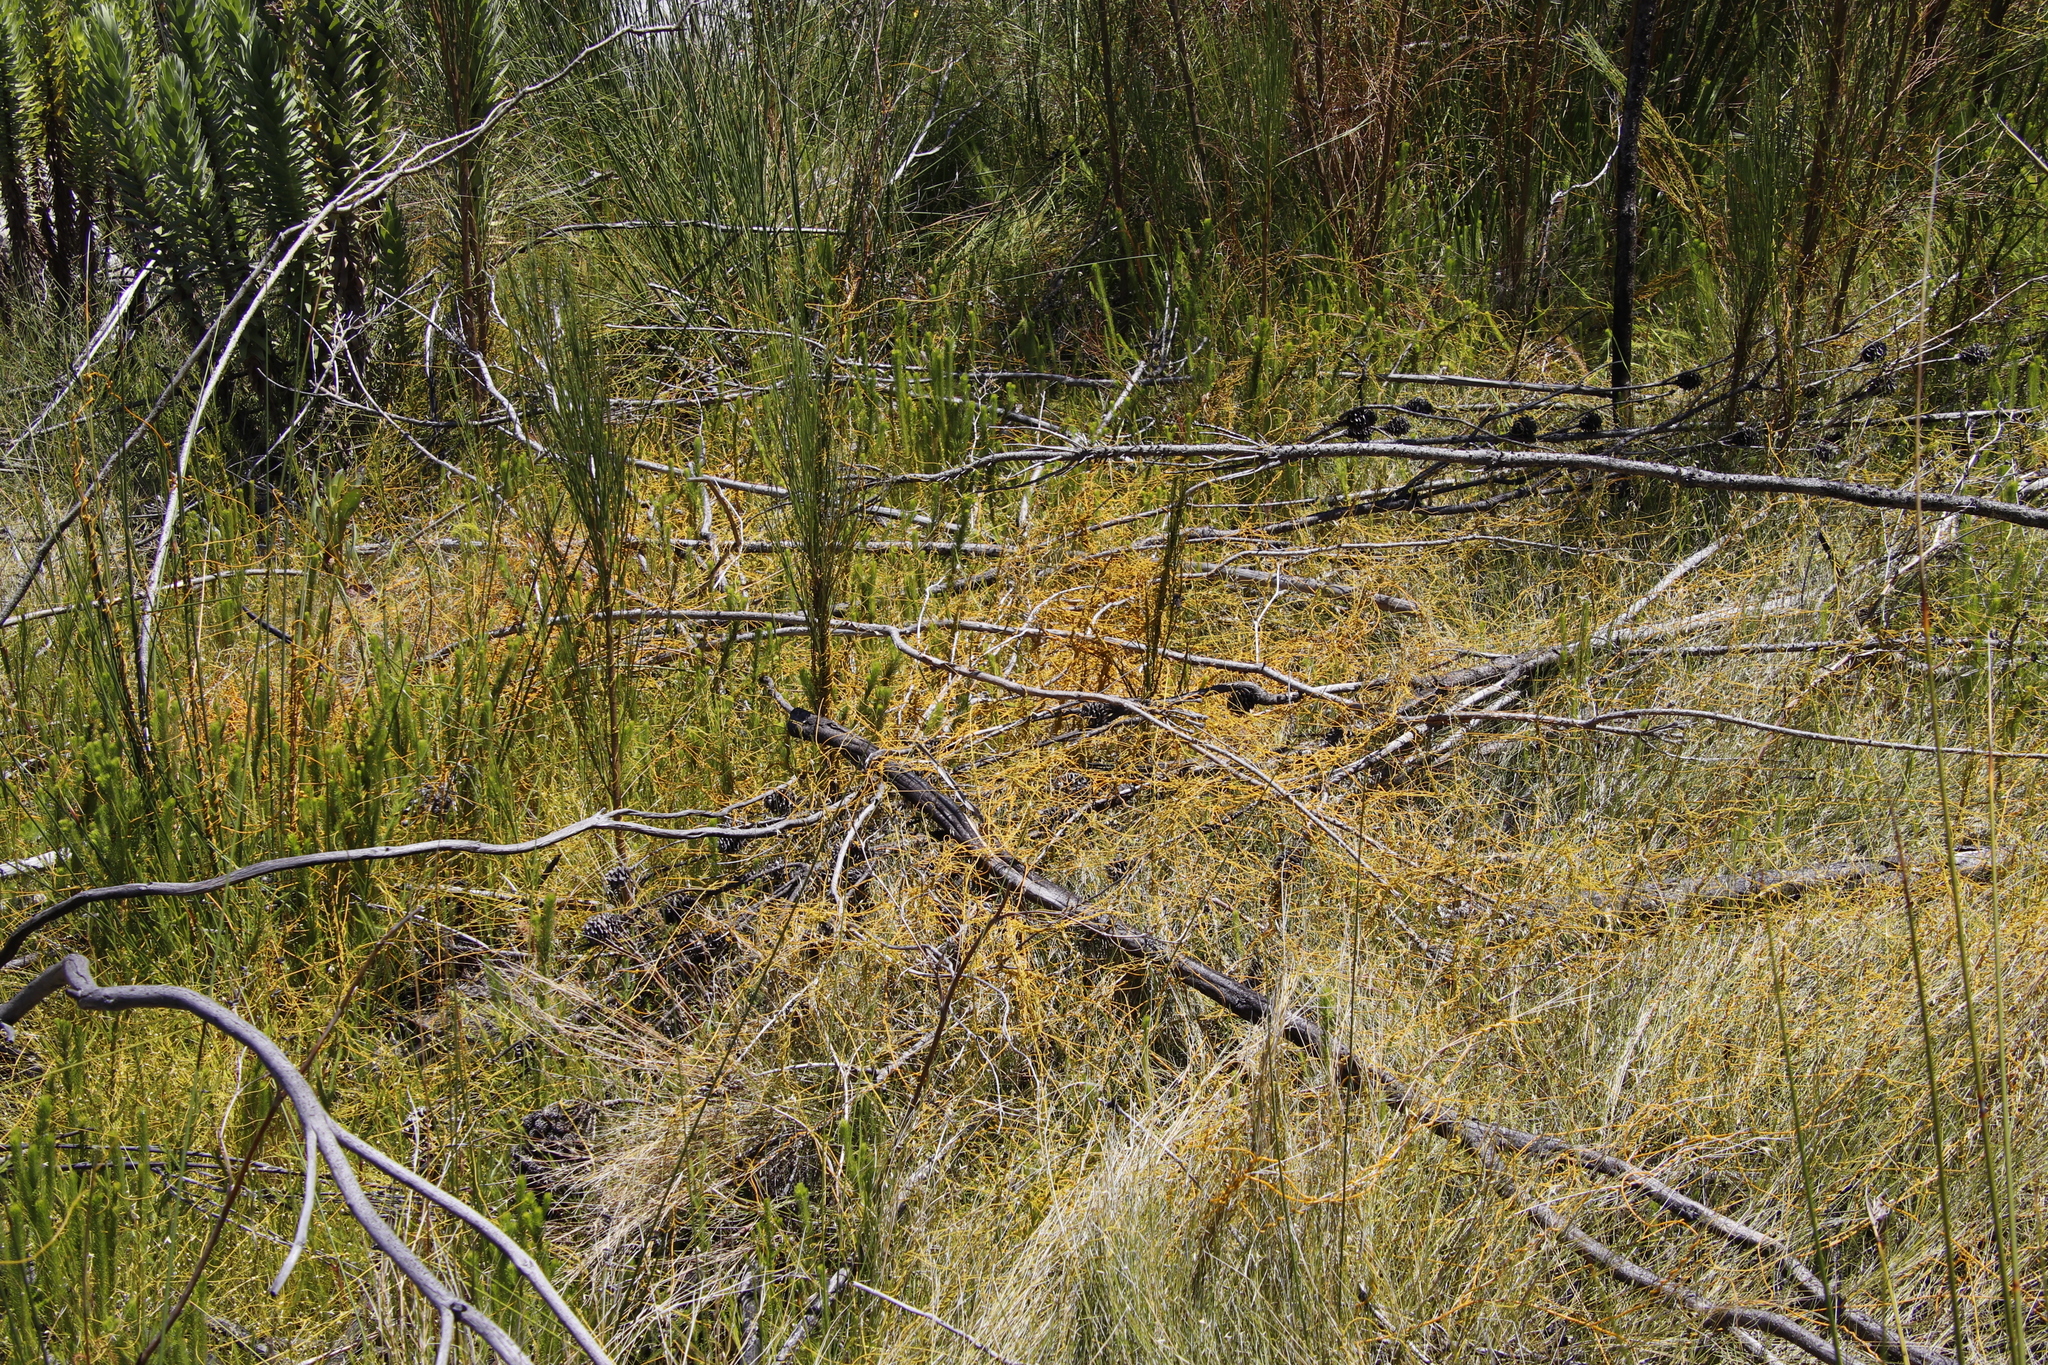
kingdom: Plantae
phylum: Tracheophyta
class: Magnoliopsida
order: Laurales
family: Lauraceae
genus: Cassytha
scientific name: Cassytha ciliolata
